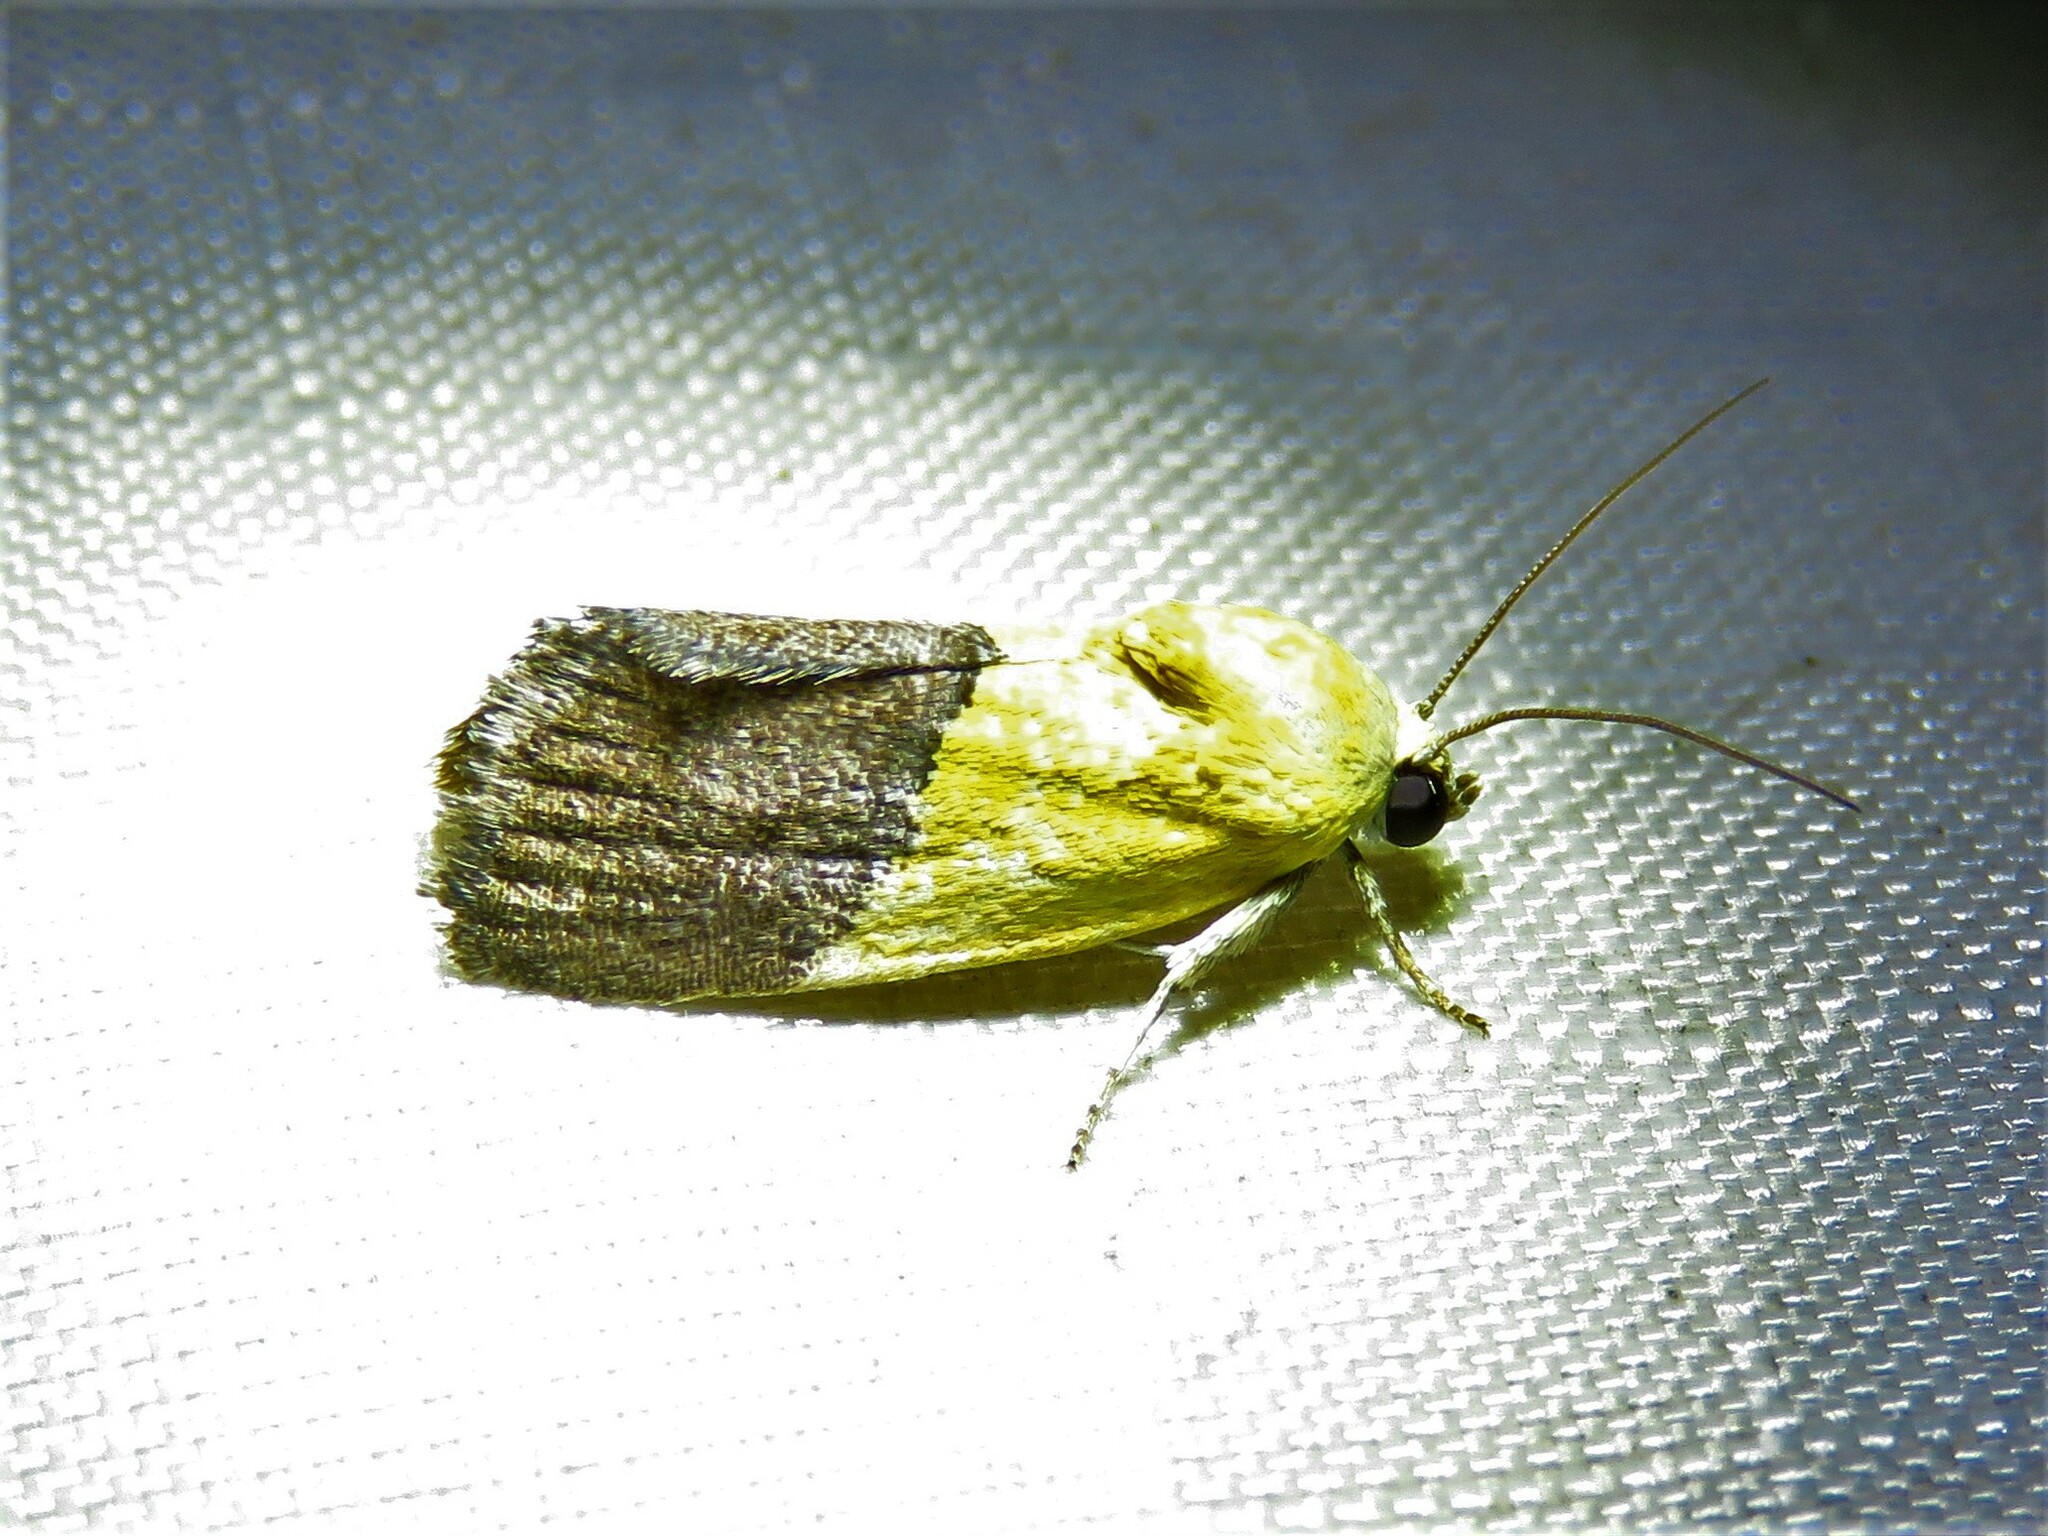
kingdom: Animalia
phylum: Arthropoda
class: Insecta
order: Lepidoptera
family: Noctuidae
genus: Acontia
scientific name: Acontia semiflava
